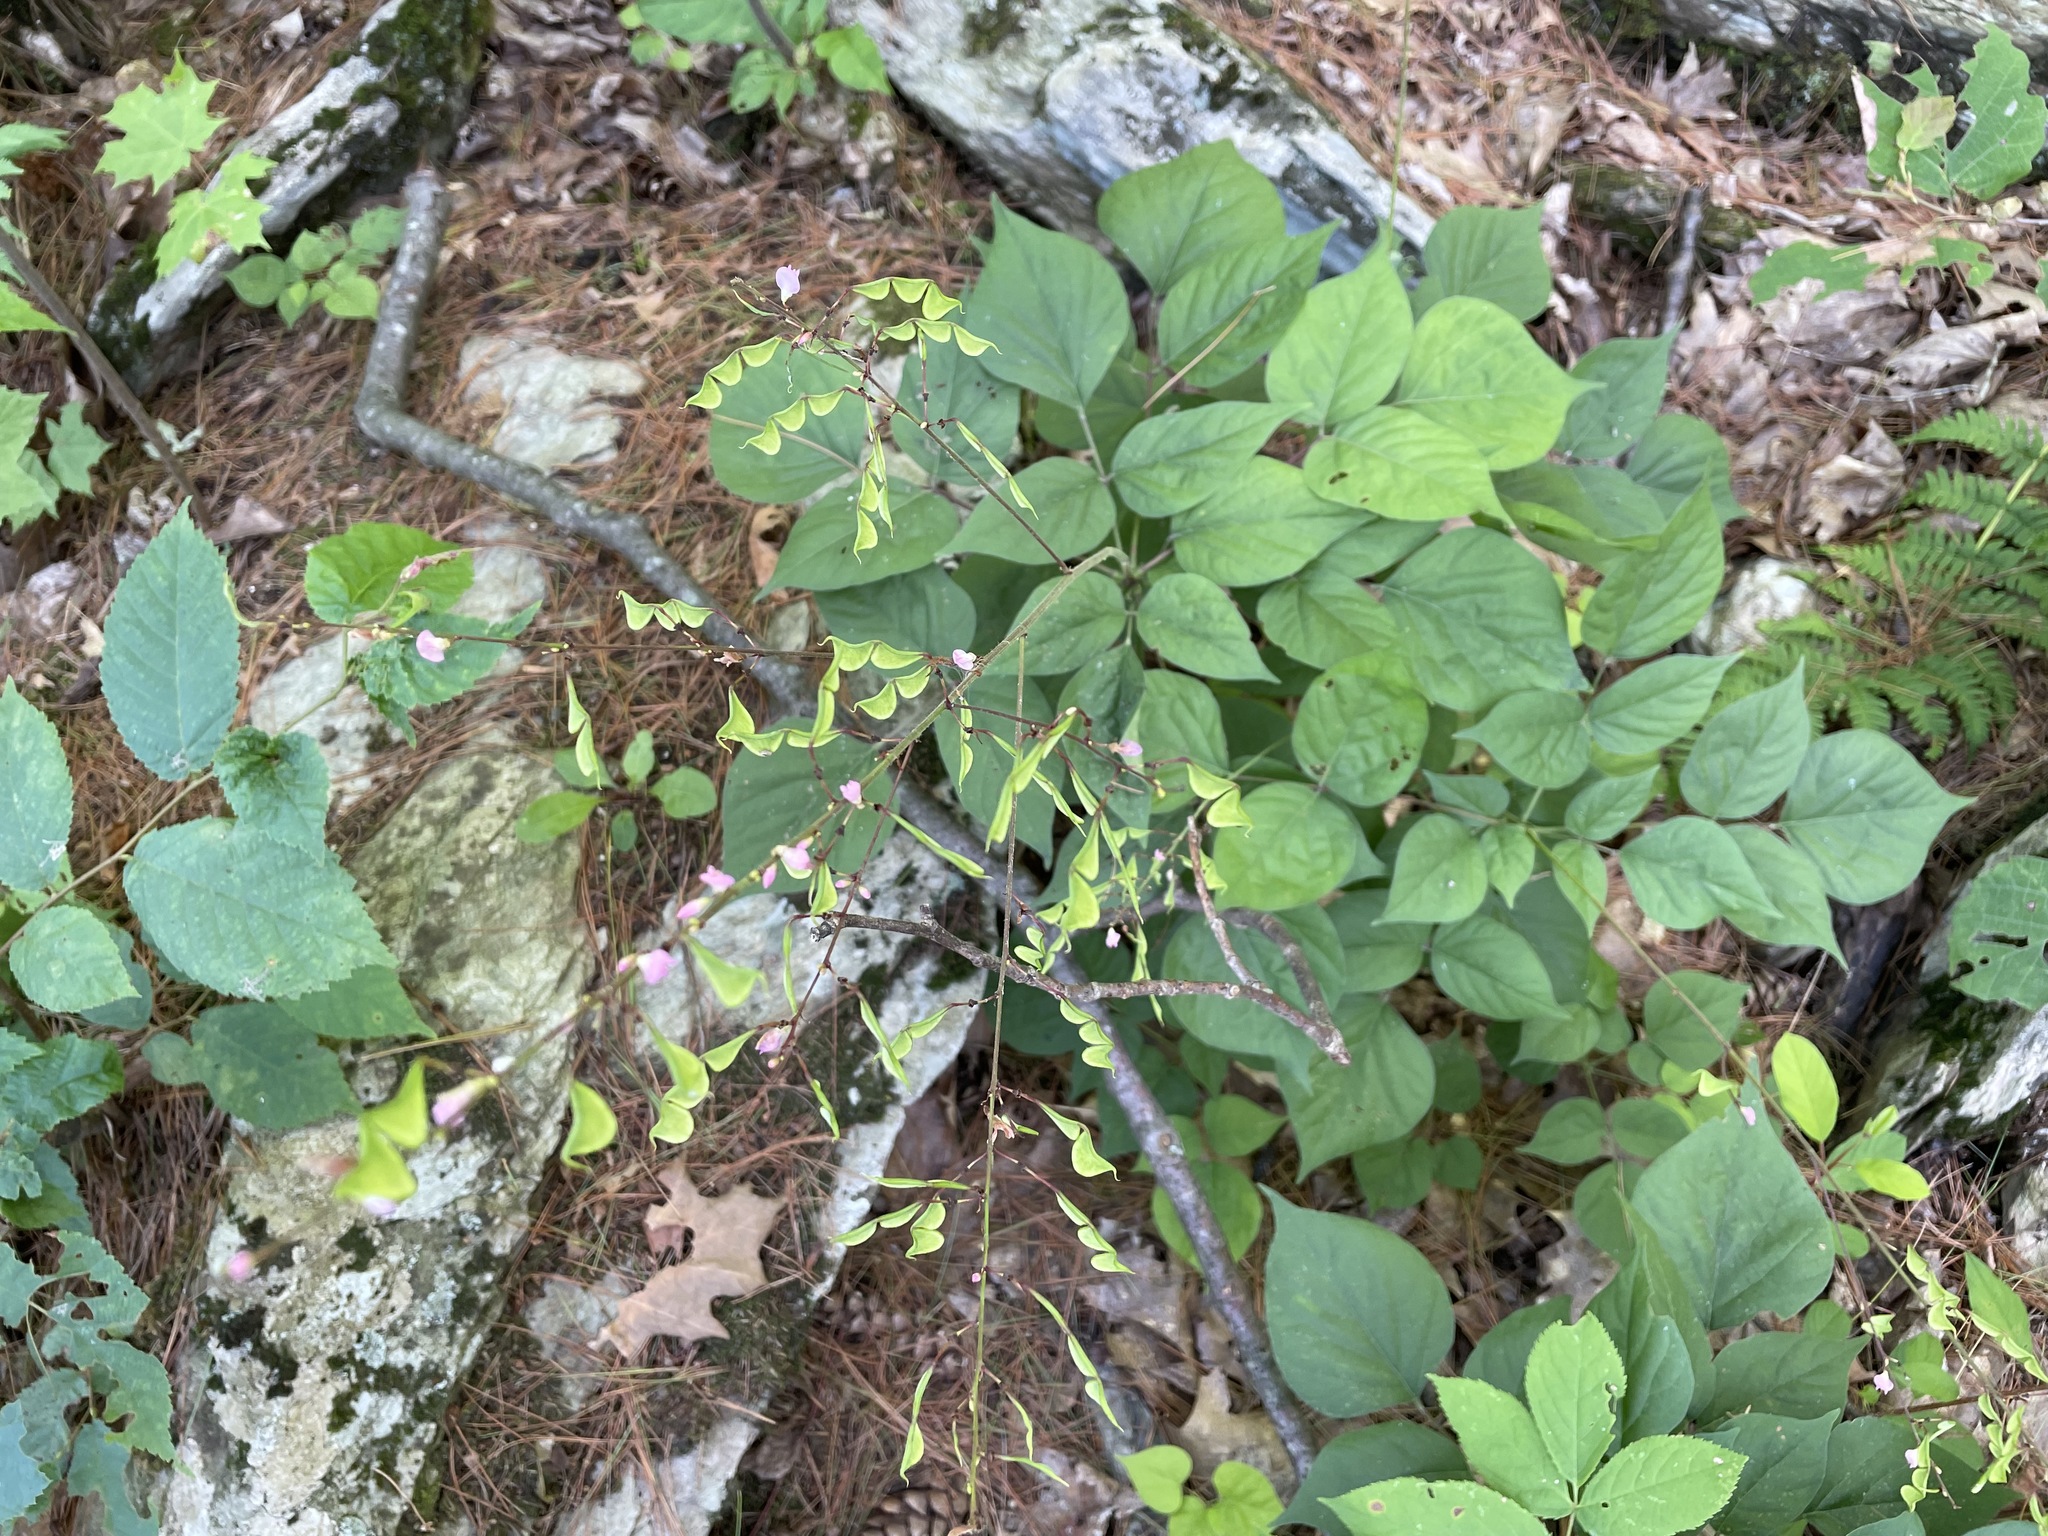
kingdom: Plantae
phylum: Tracheophyta
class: Magnoliopsida
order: Fabales
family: Fabaceae
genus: Hylodesmum
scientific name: Hylodesmum glutinosum
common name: Clustered-leaved tick-trefoil
